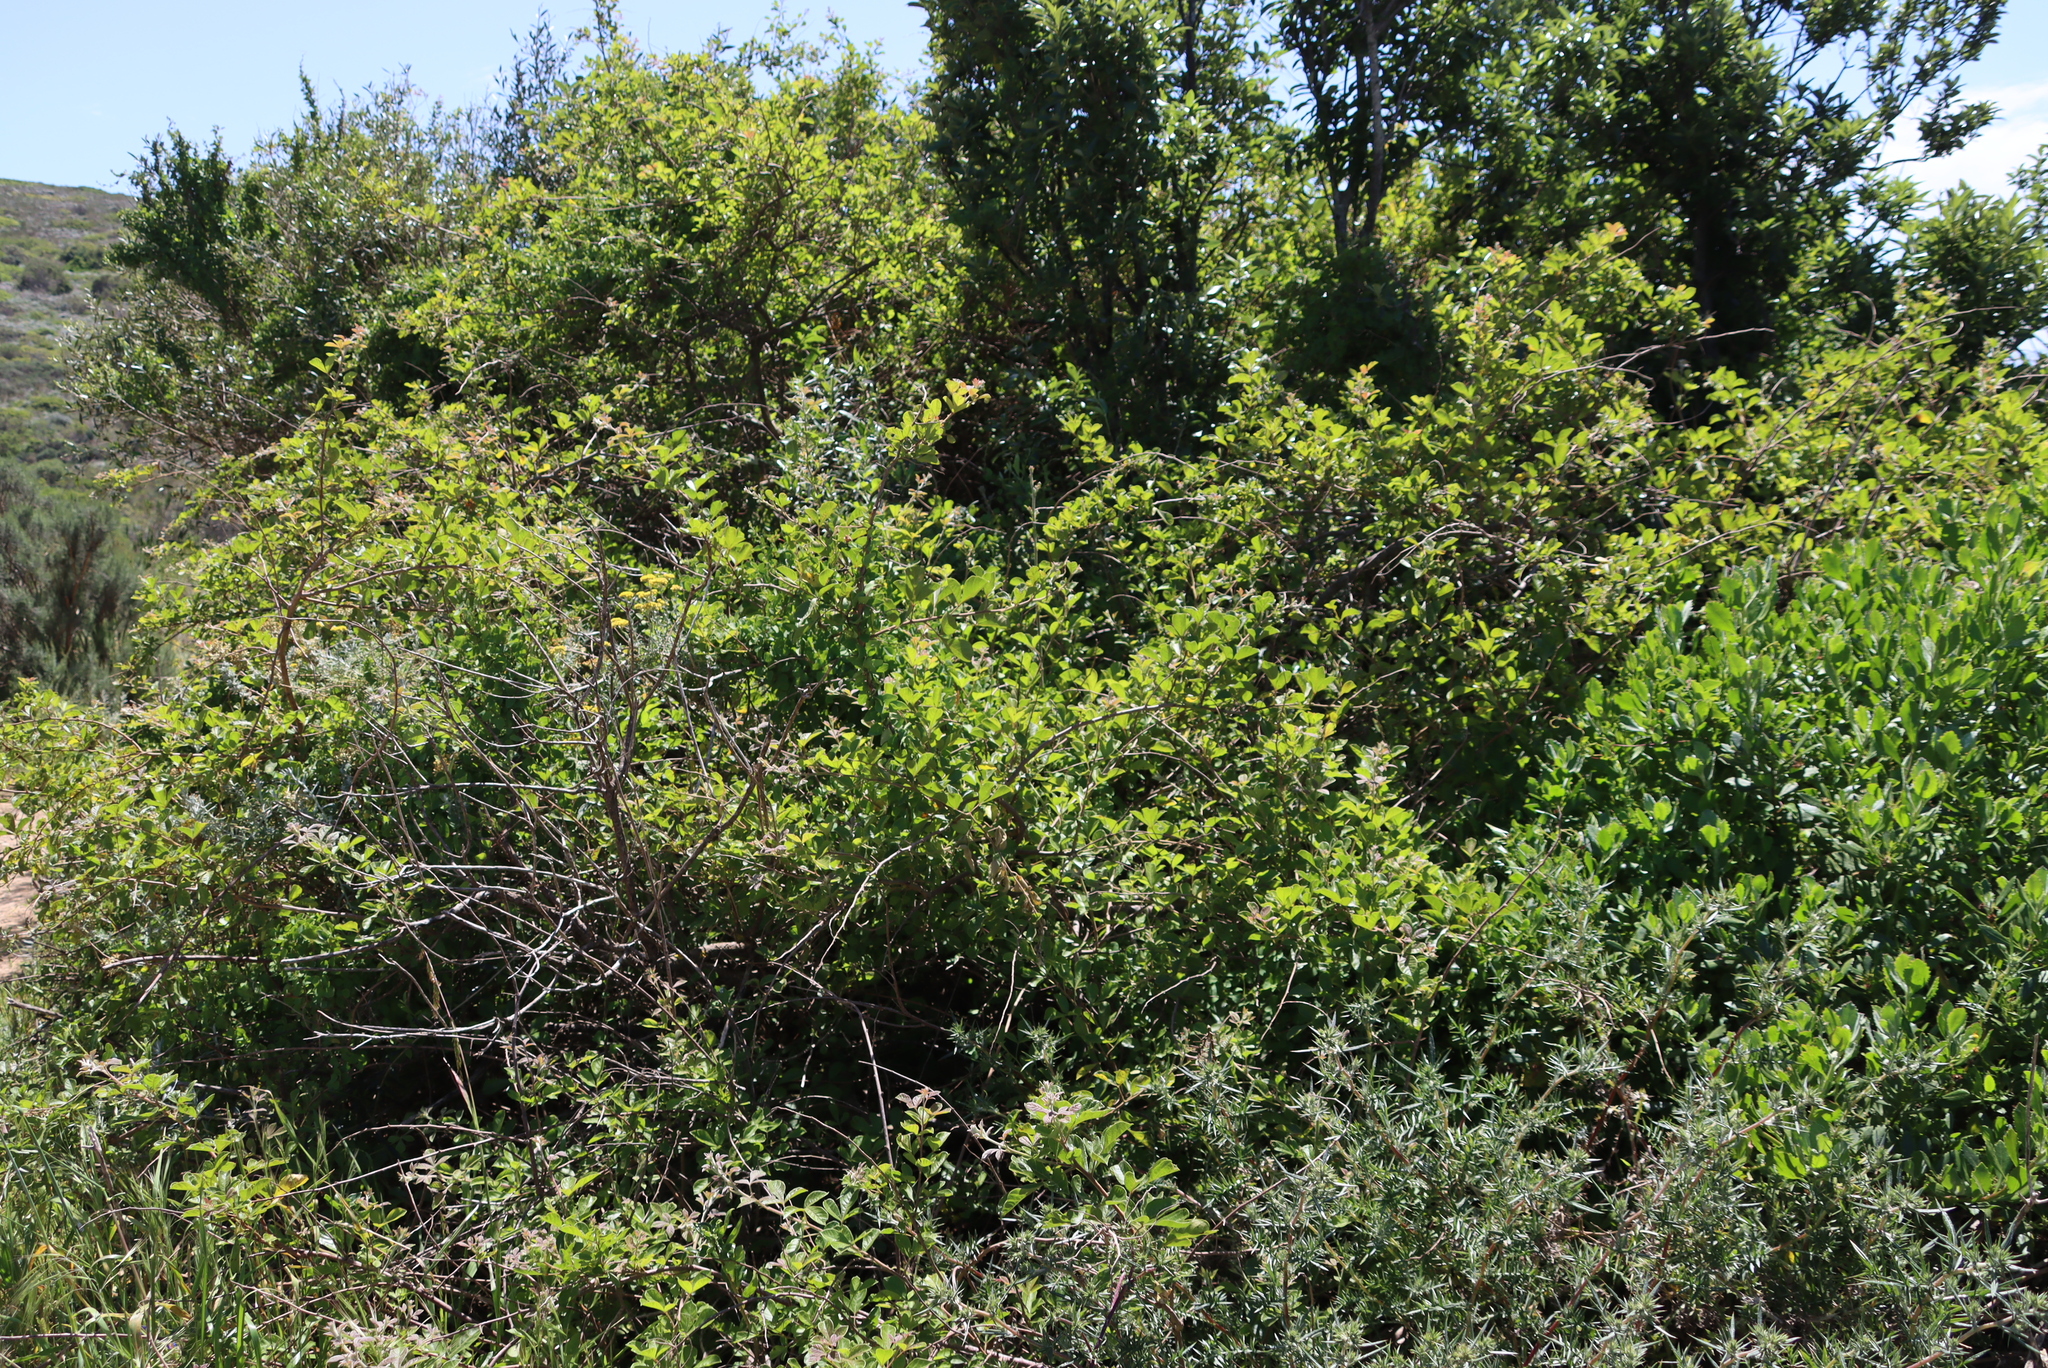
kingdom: Plantae
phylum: Tracheophyta
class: Magnoliopsida
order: Sapindales
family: Anacardiaceae
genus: Searsia
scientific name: Searsia rehmanniana
